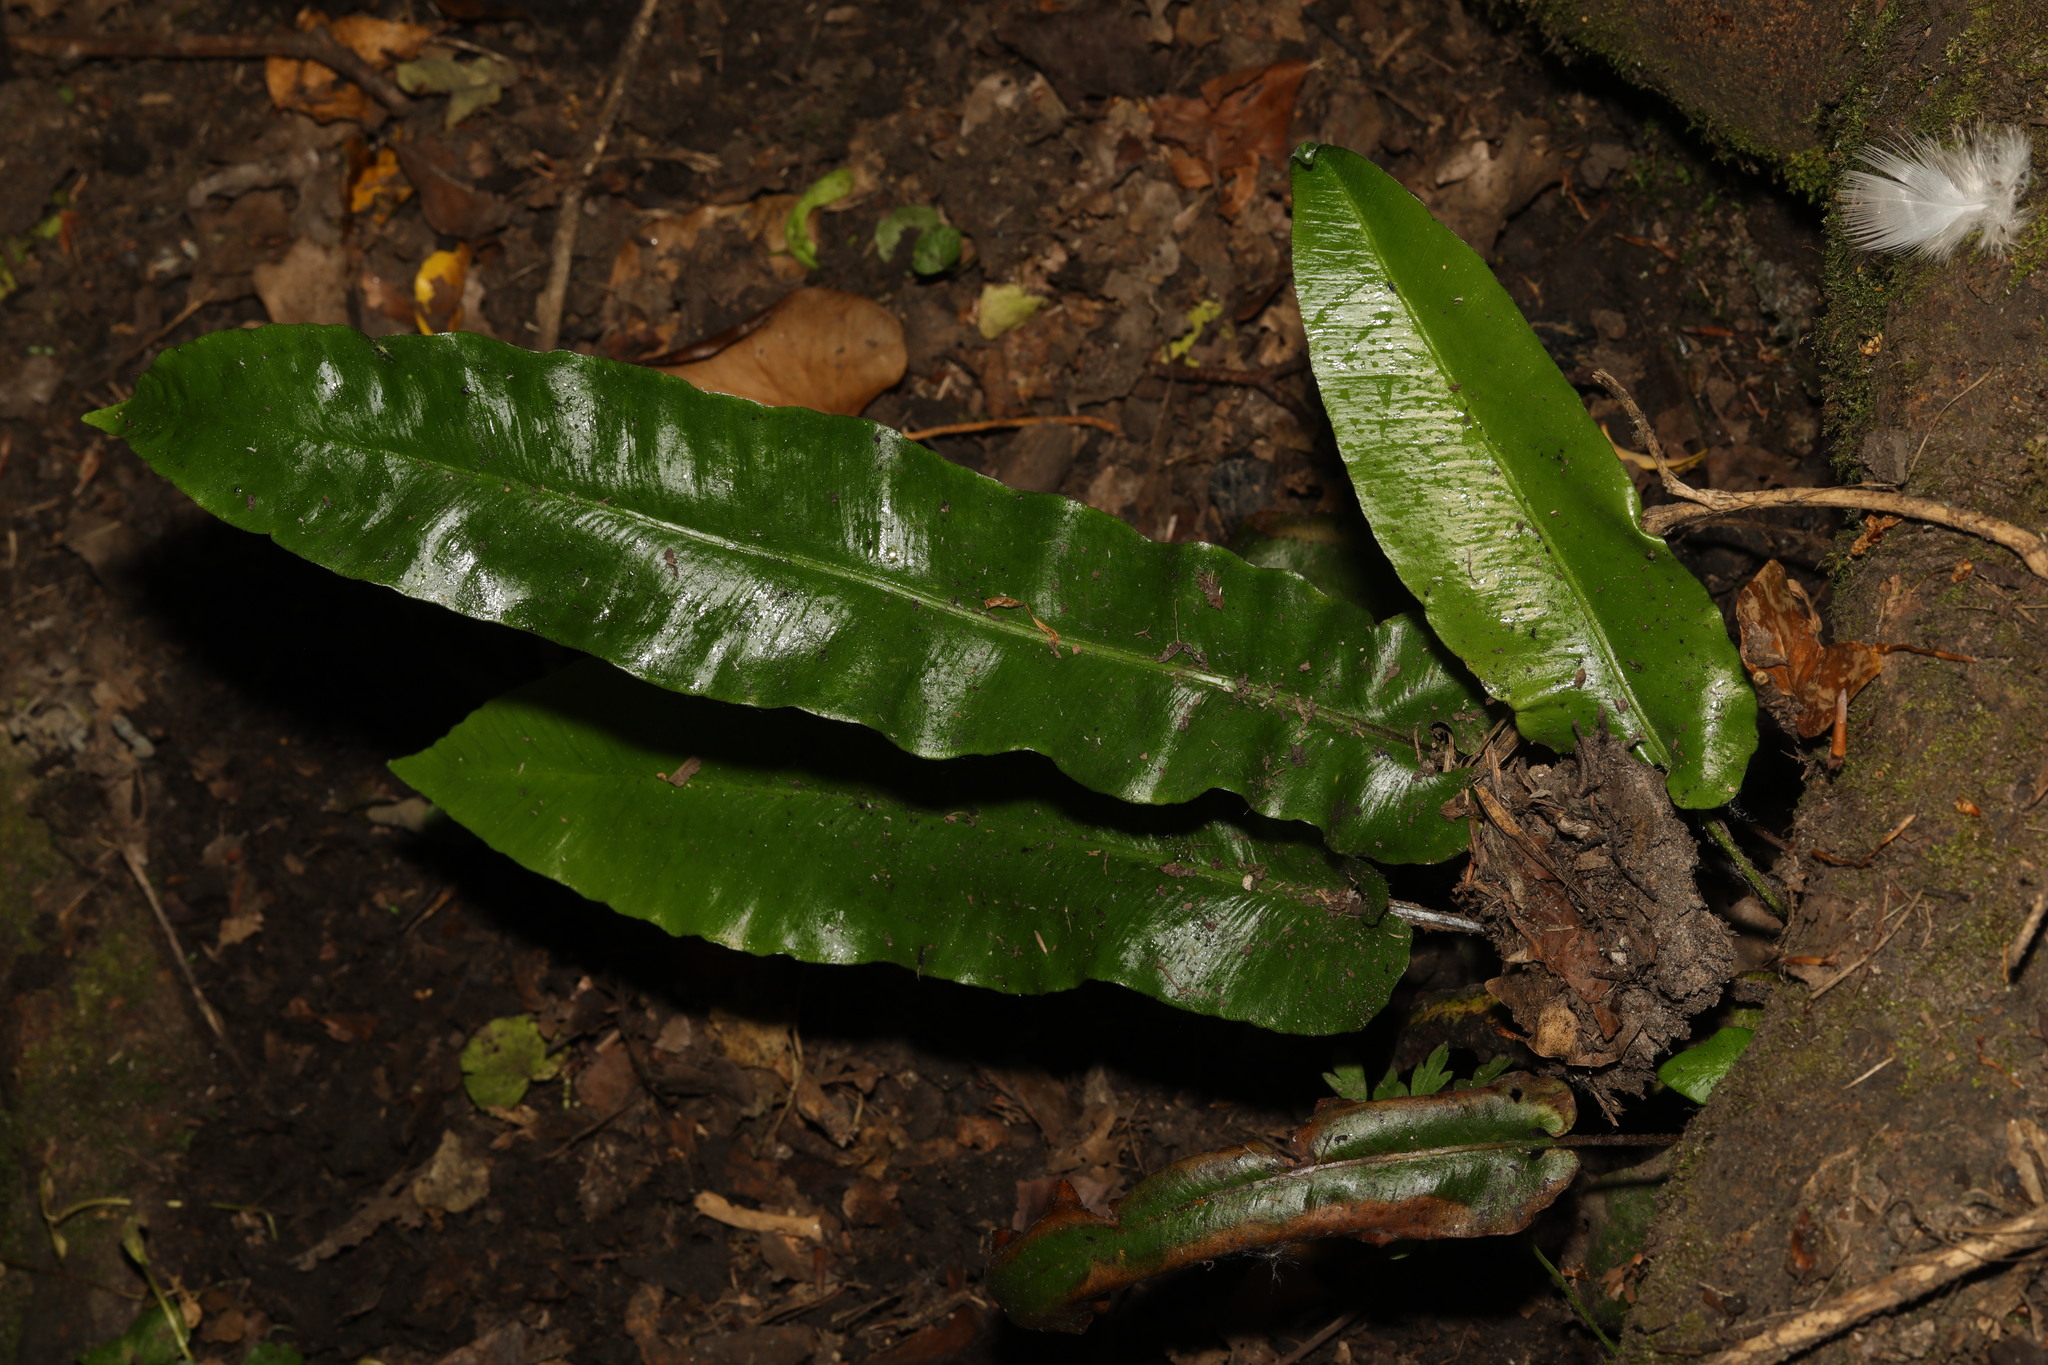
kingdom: Plantae
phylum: Tracheophyta
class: Polypodiopsida
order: Polypodiales
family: Aspleniaceae
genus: Asplenium
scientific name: Asplenium scolopendrium
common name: Hart's-tongue fern
